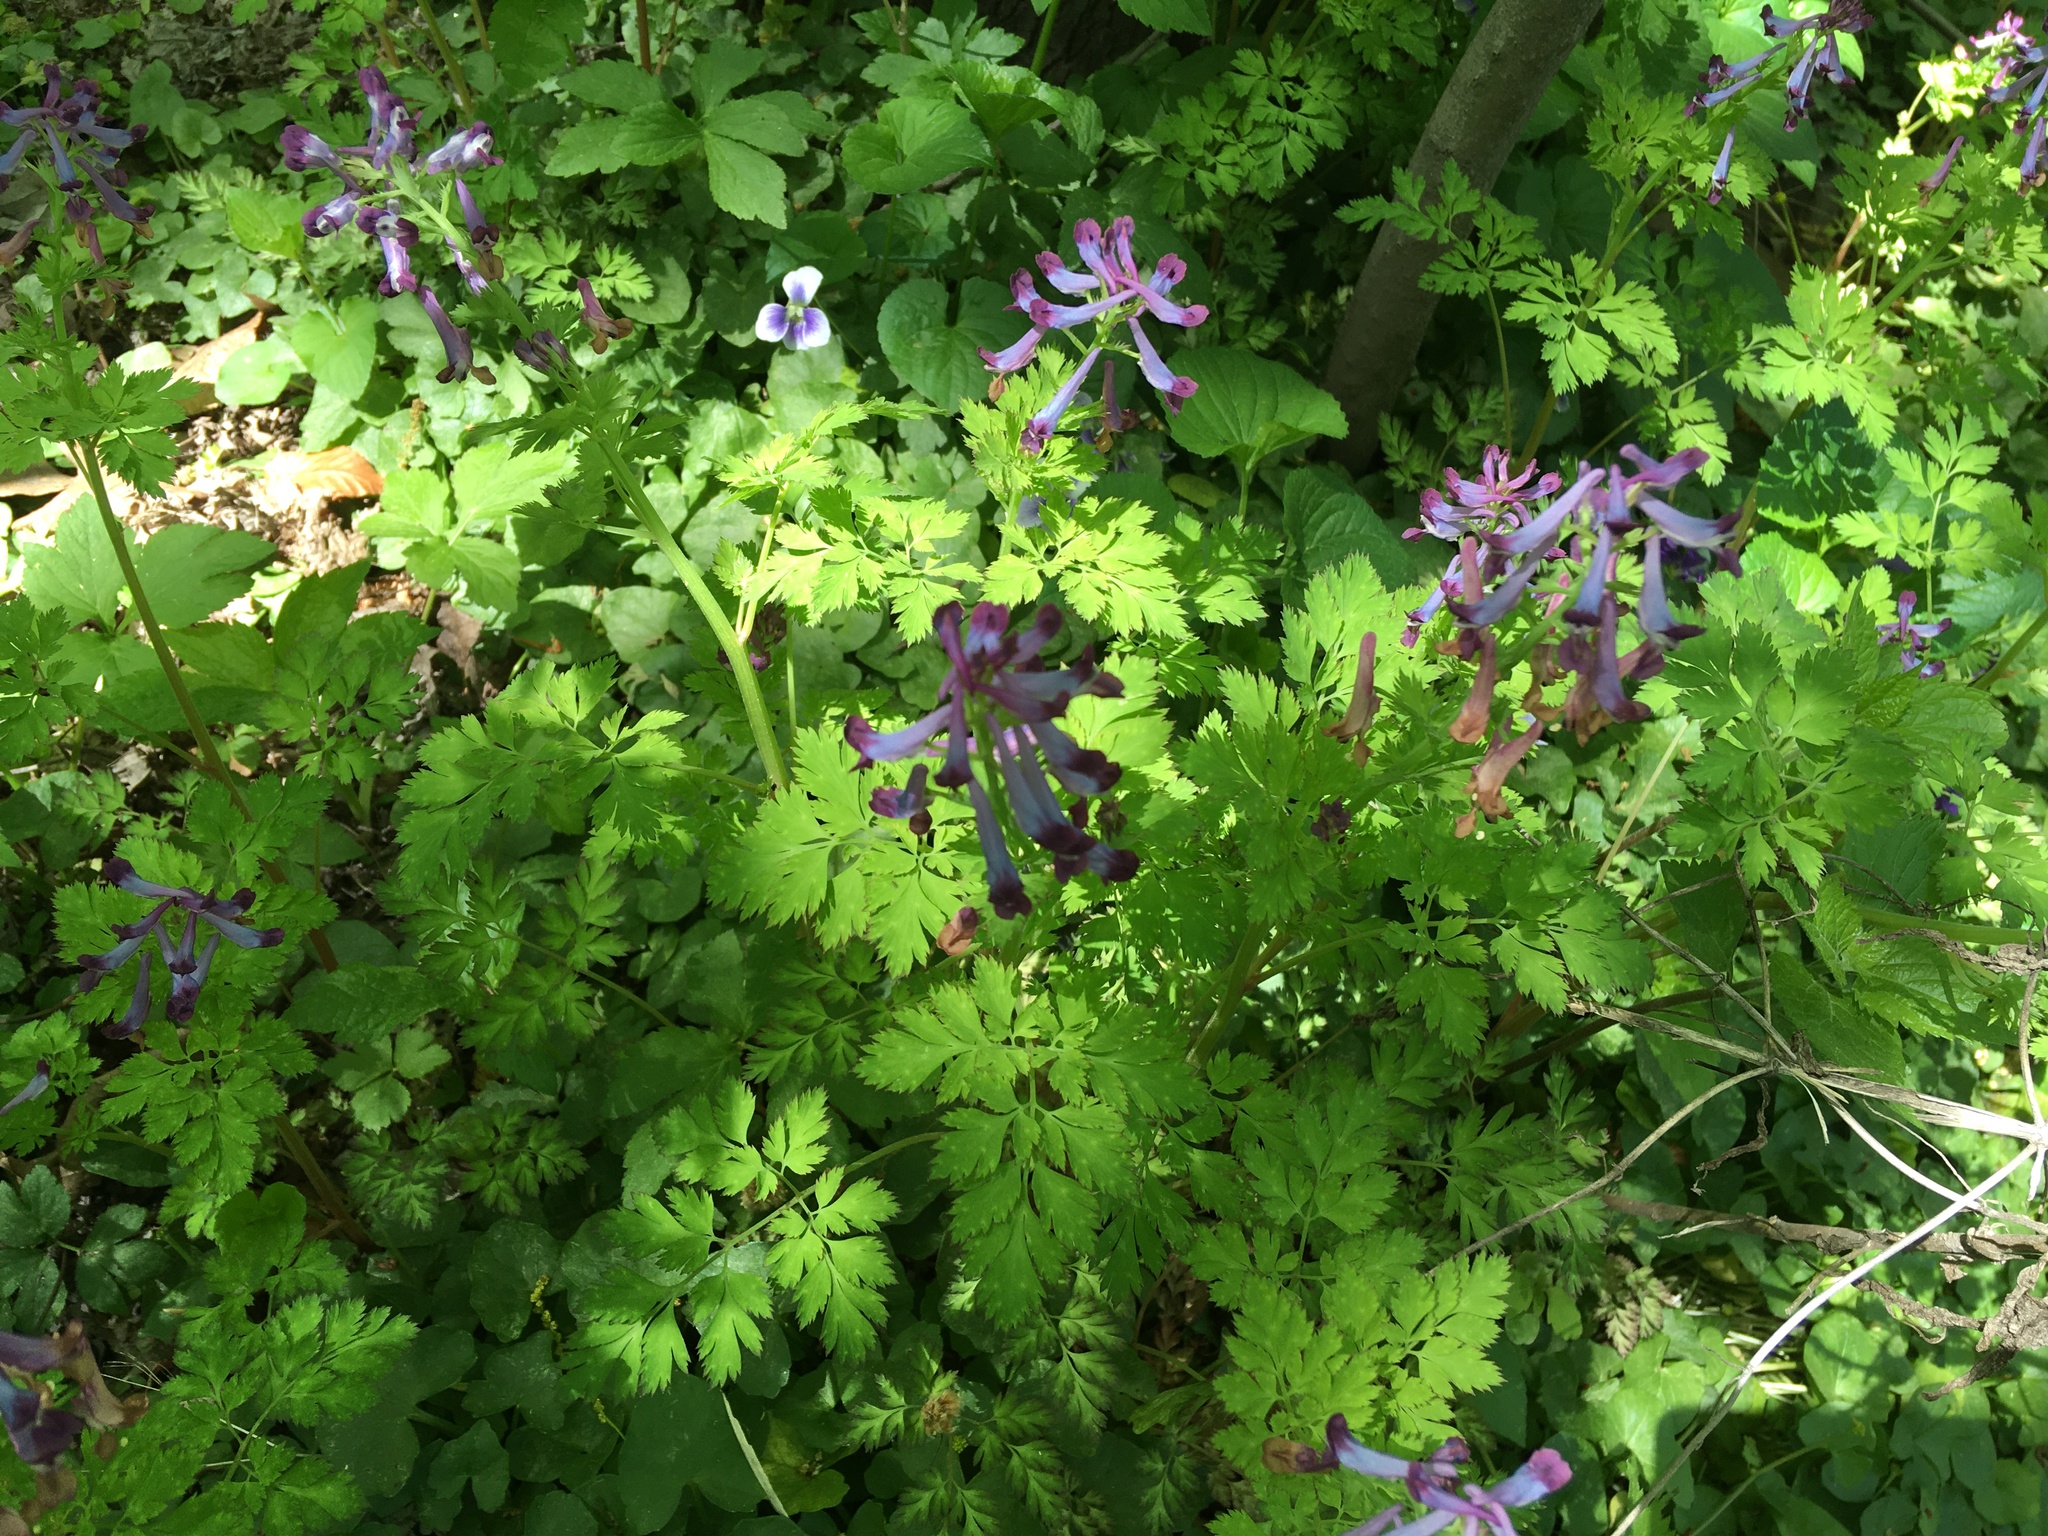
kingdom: Plantae
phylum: Tracheophyta
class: Magnoliopsida
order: Ranunculales
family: Papaveraceae
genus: Corydalis
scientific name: Corydalis incisa
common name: Incised fumewort
